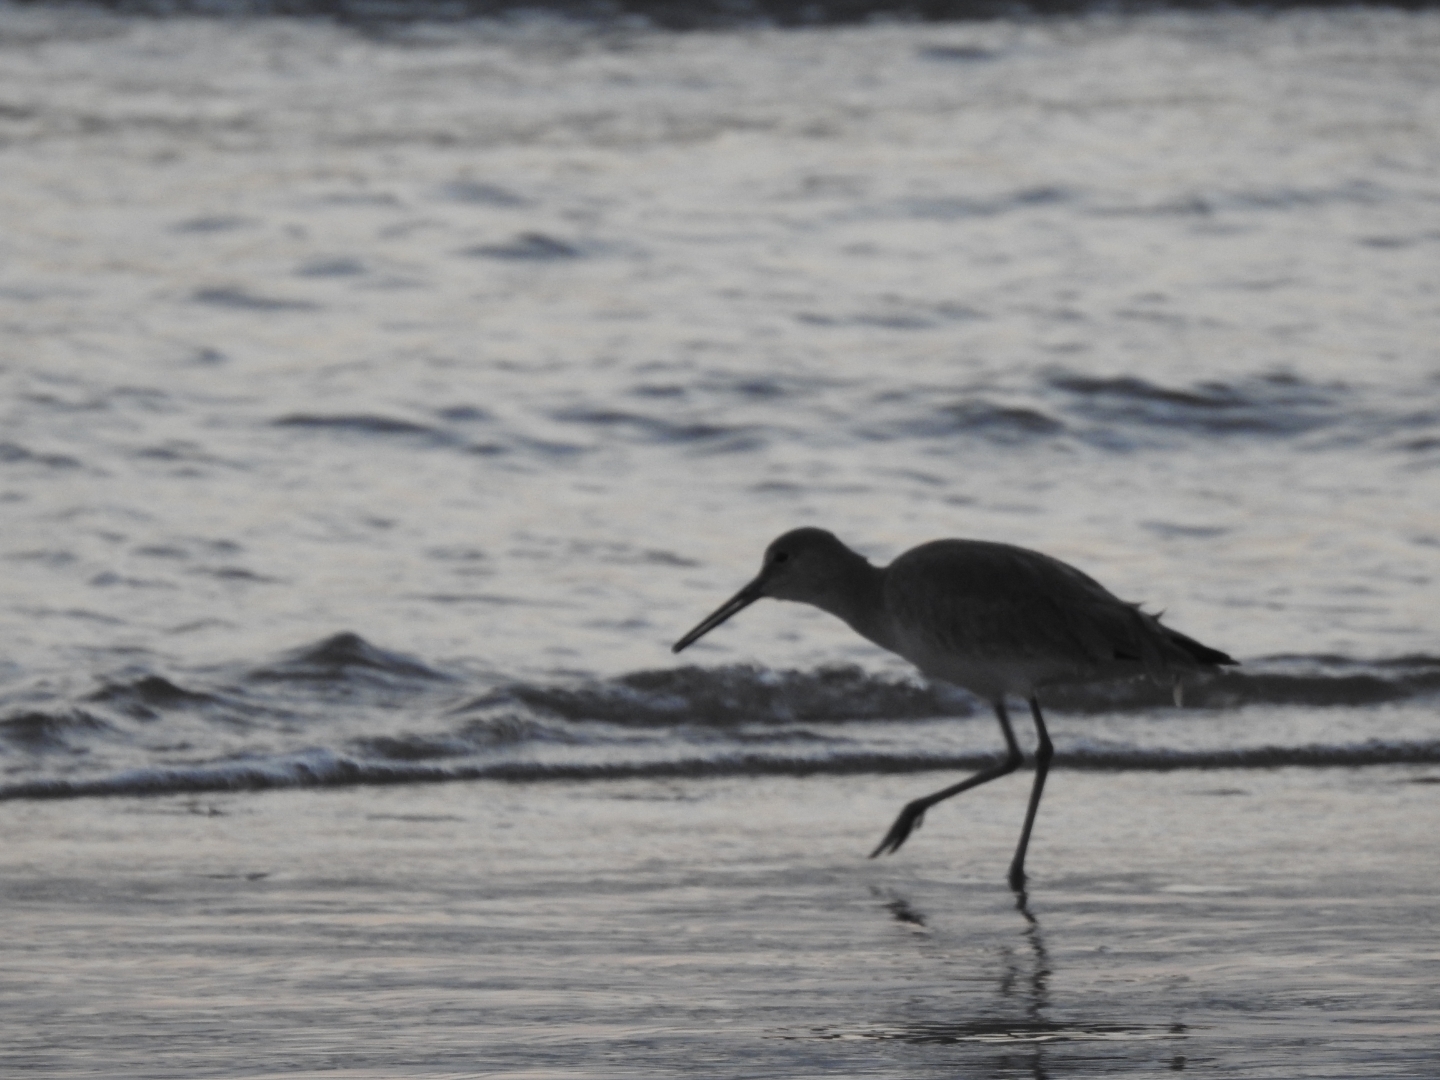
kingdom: Animalia
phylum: Chordata
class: Aves
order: Charadriiformes
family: Scolopacidae
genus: Tringa
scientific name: Tringa semipalmata
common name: Willet
